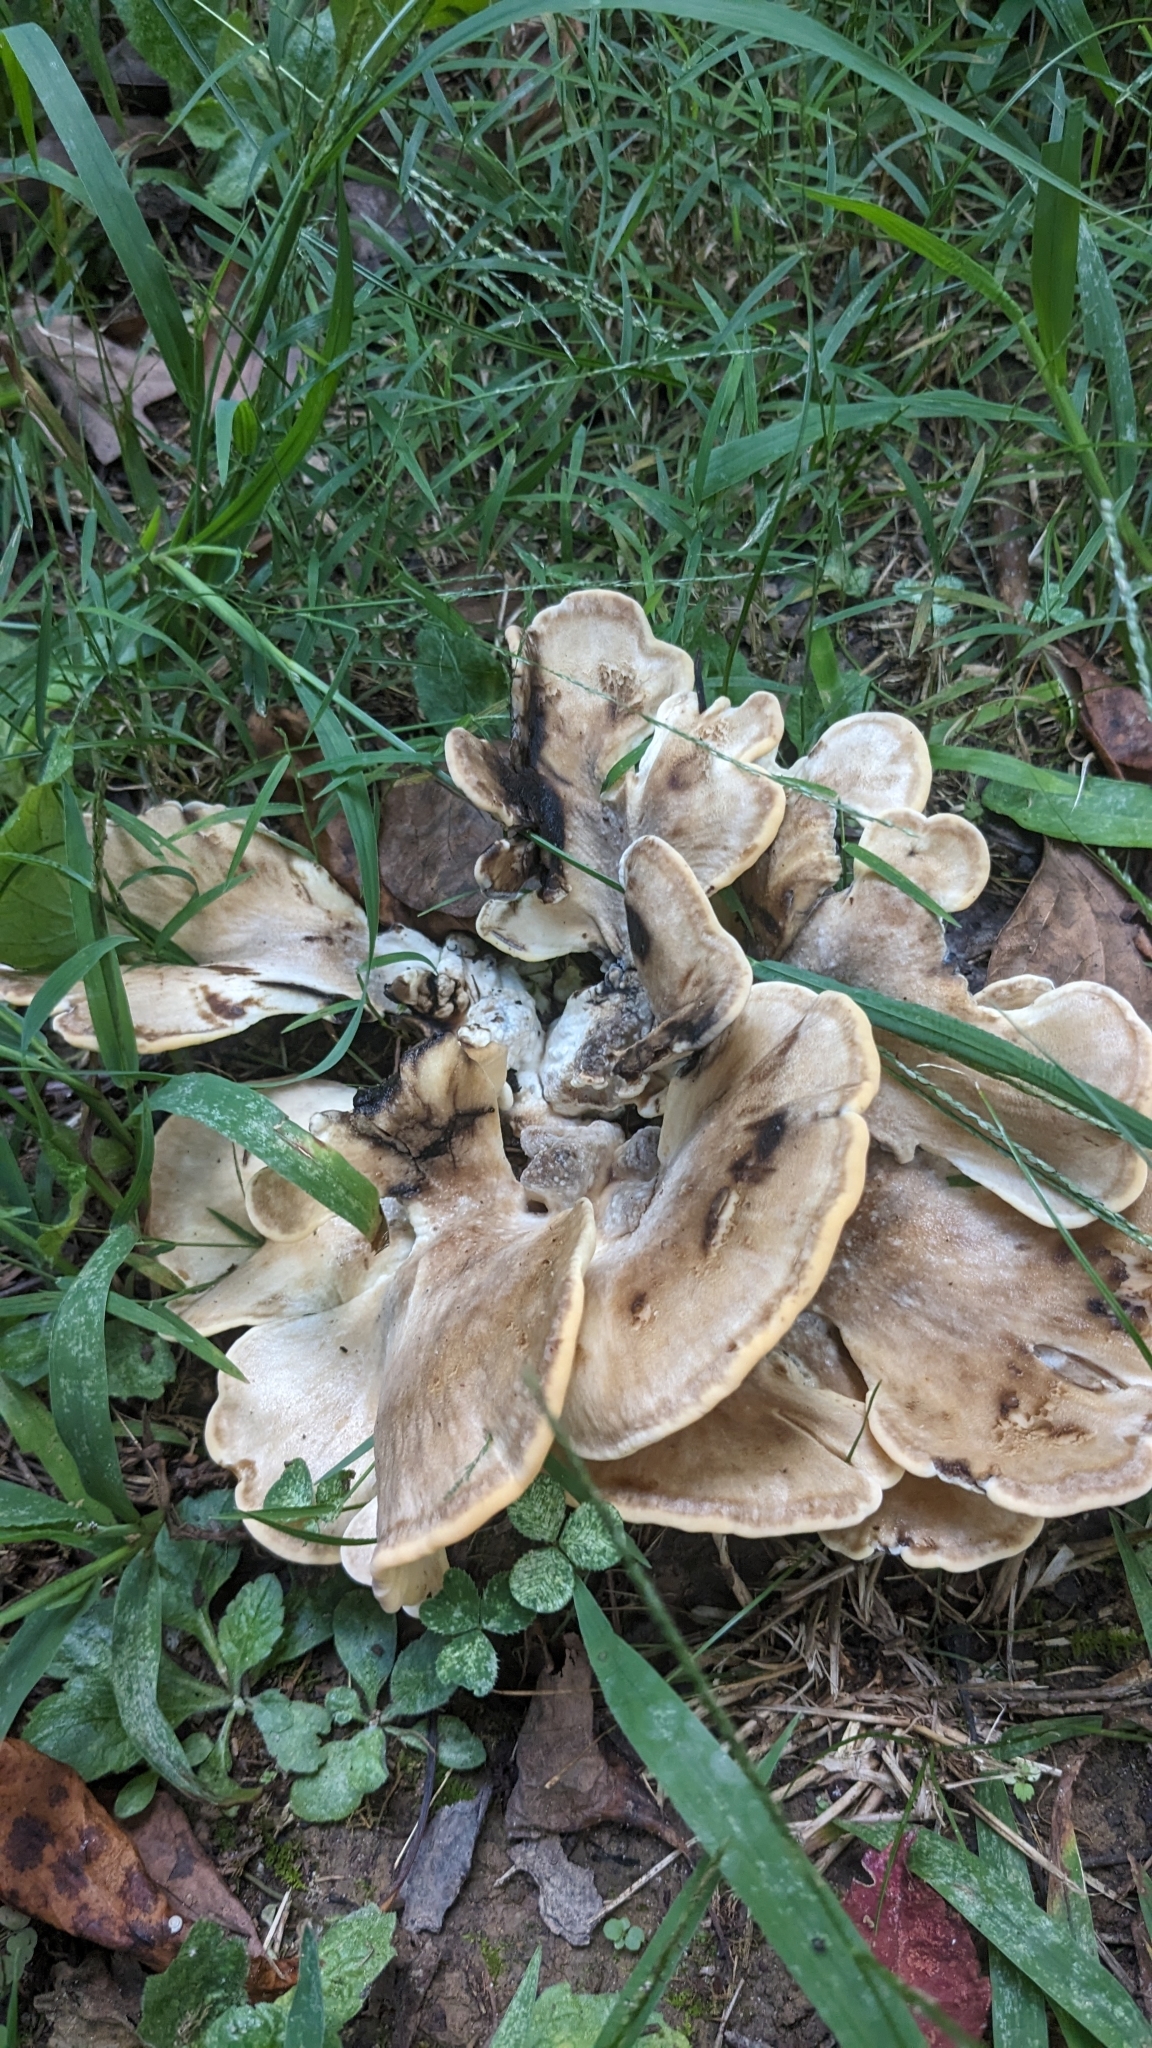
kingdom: Fungi
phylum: Basidiomycota
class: Agaricomycetes
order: Polyporales
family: Meripilaceae
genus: Meripilus
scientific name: Meripilus sumstinei
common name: Black-staining polypore
